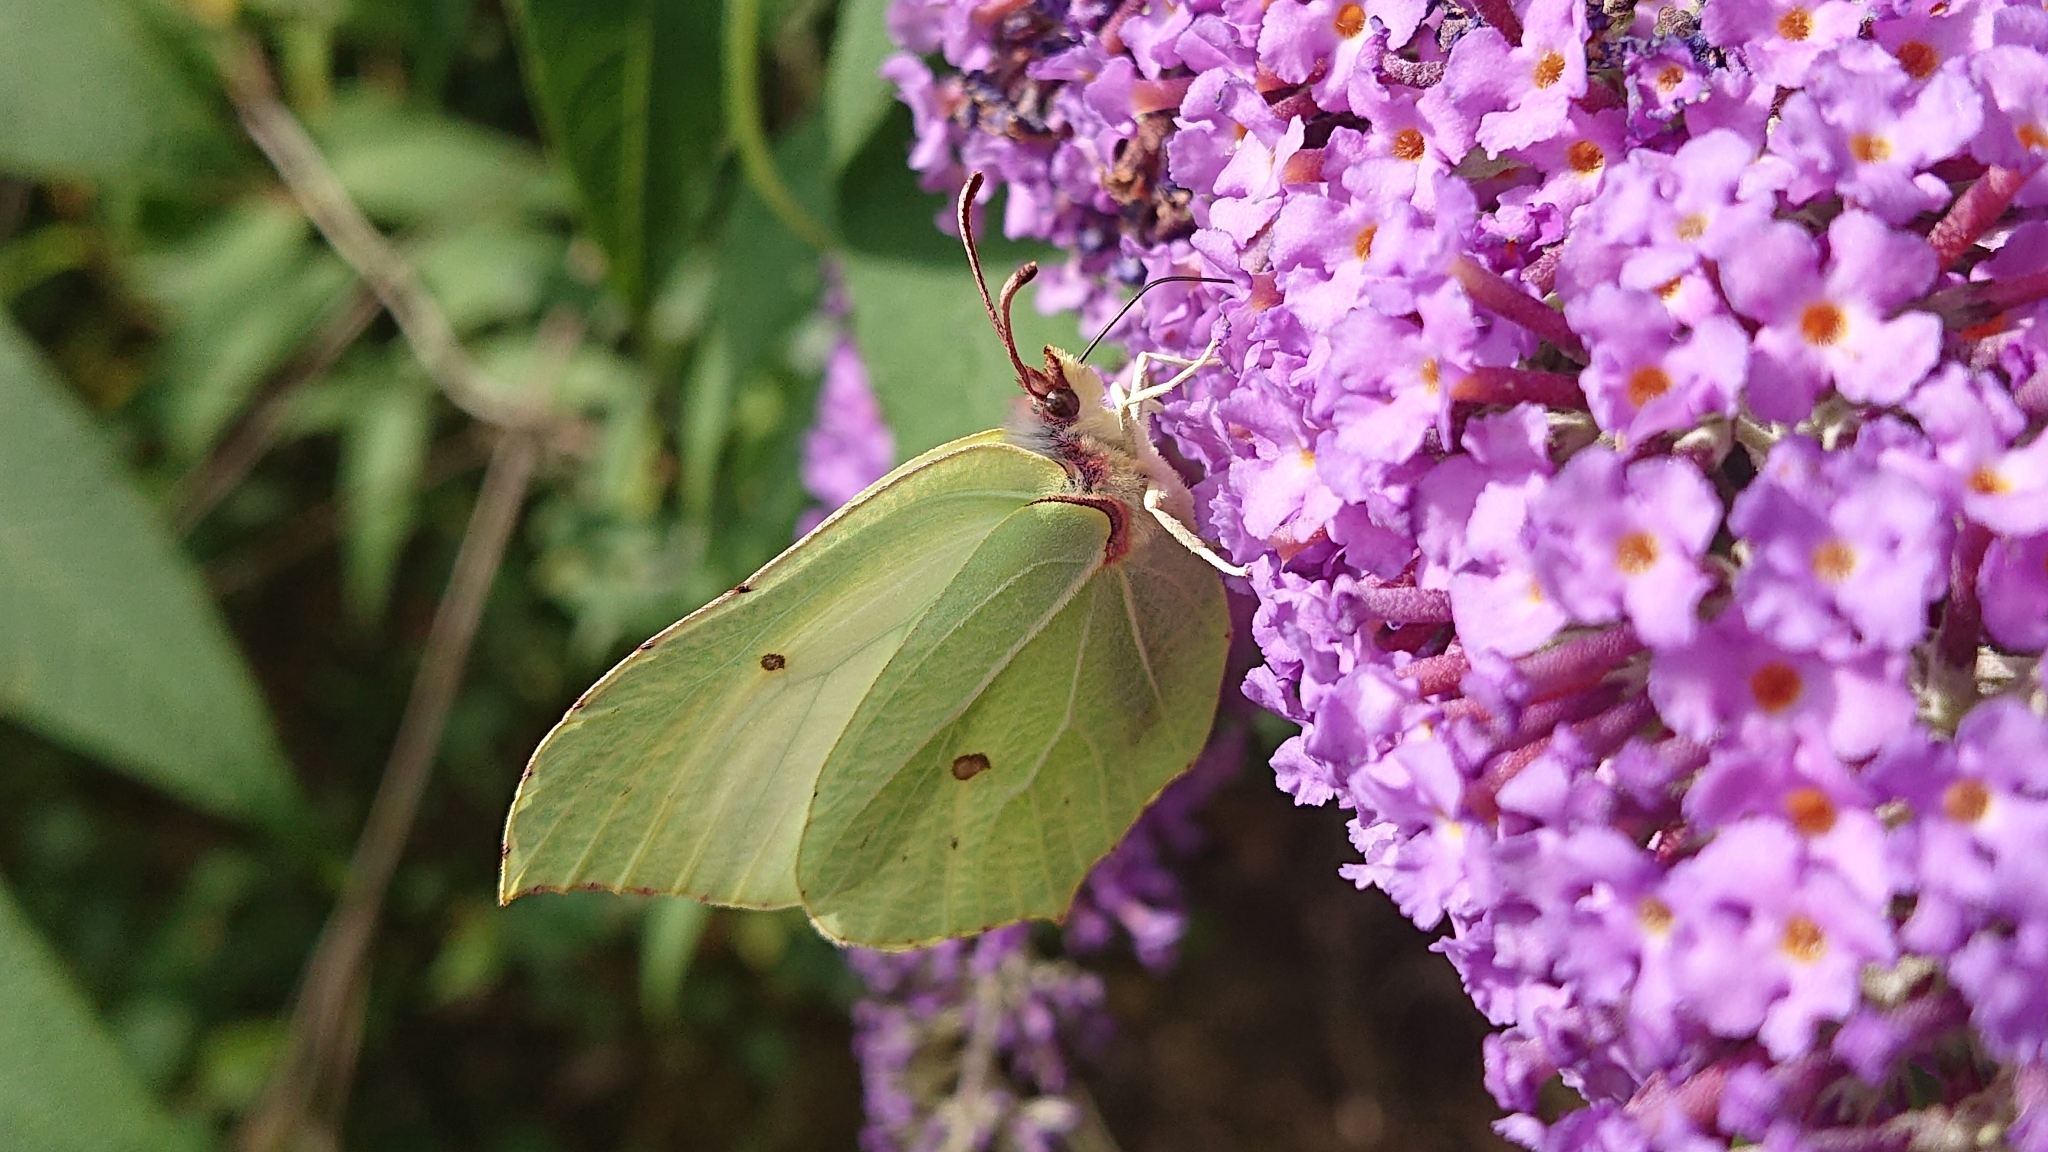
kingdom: Animalia
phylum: Arthropoda
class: Insecta
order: Lepidoptera
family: Pieridae
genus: Gonepteryx
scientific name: Gonepteryx rhamni
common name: Brimstone
